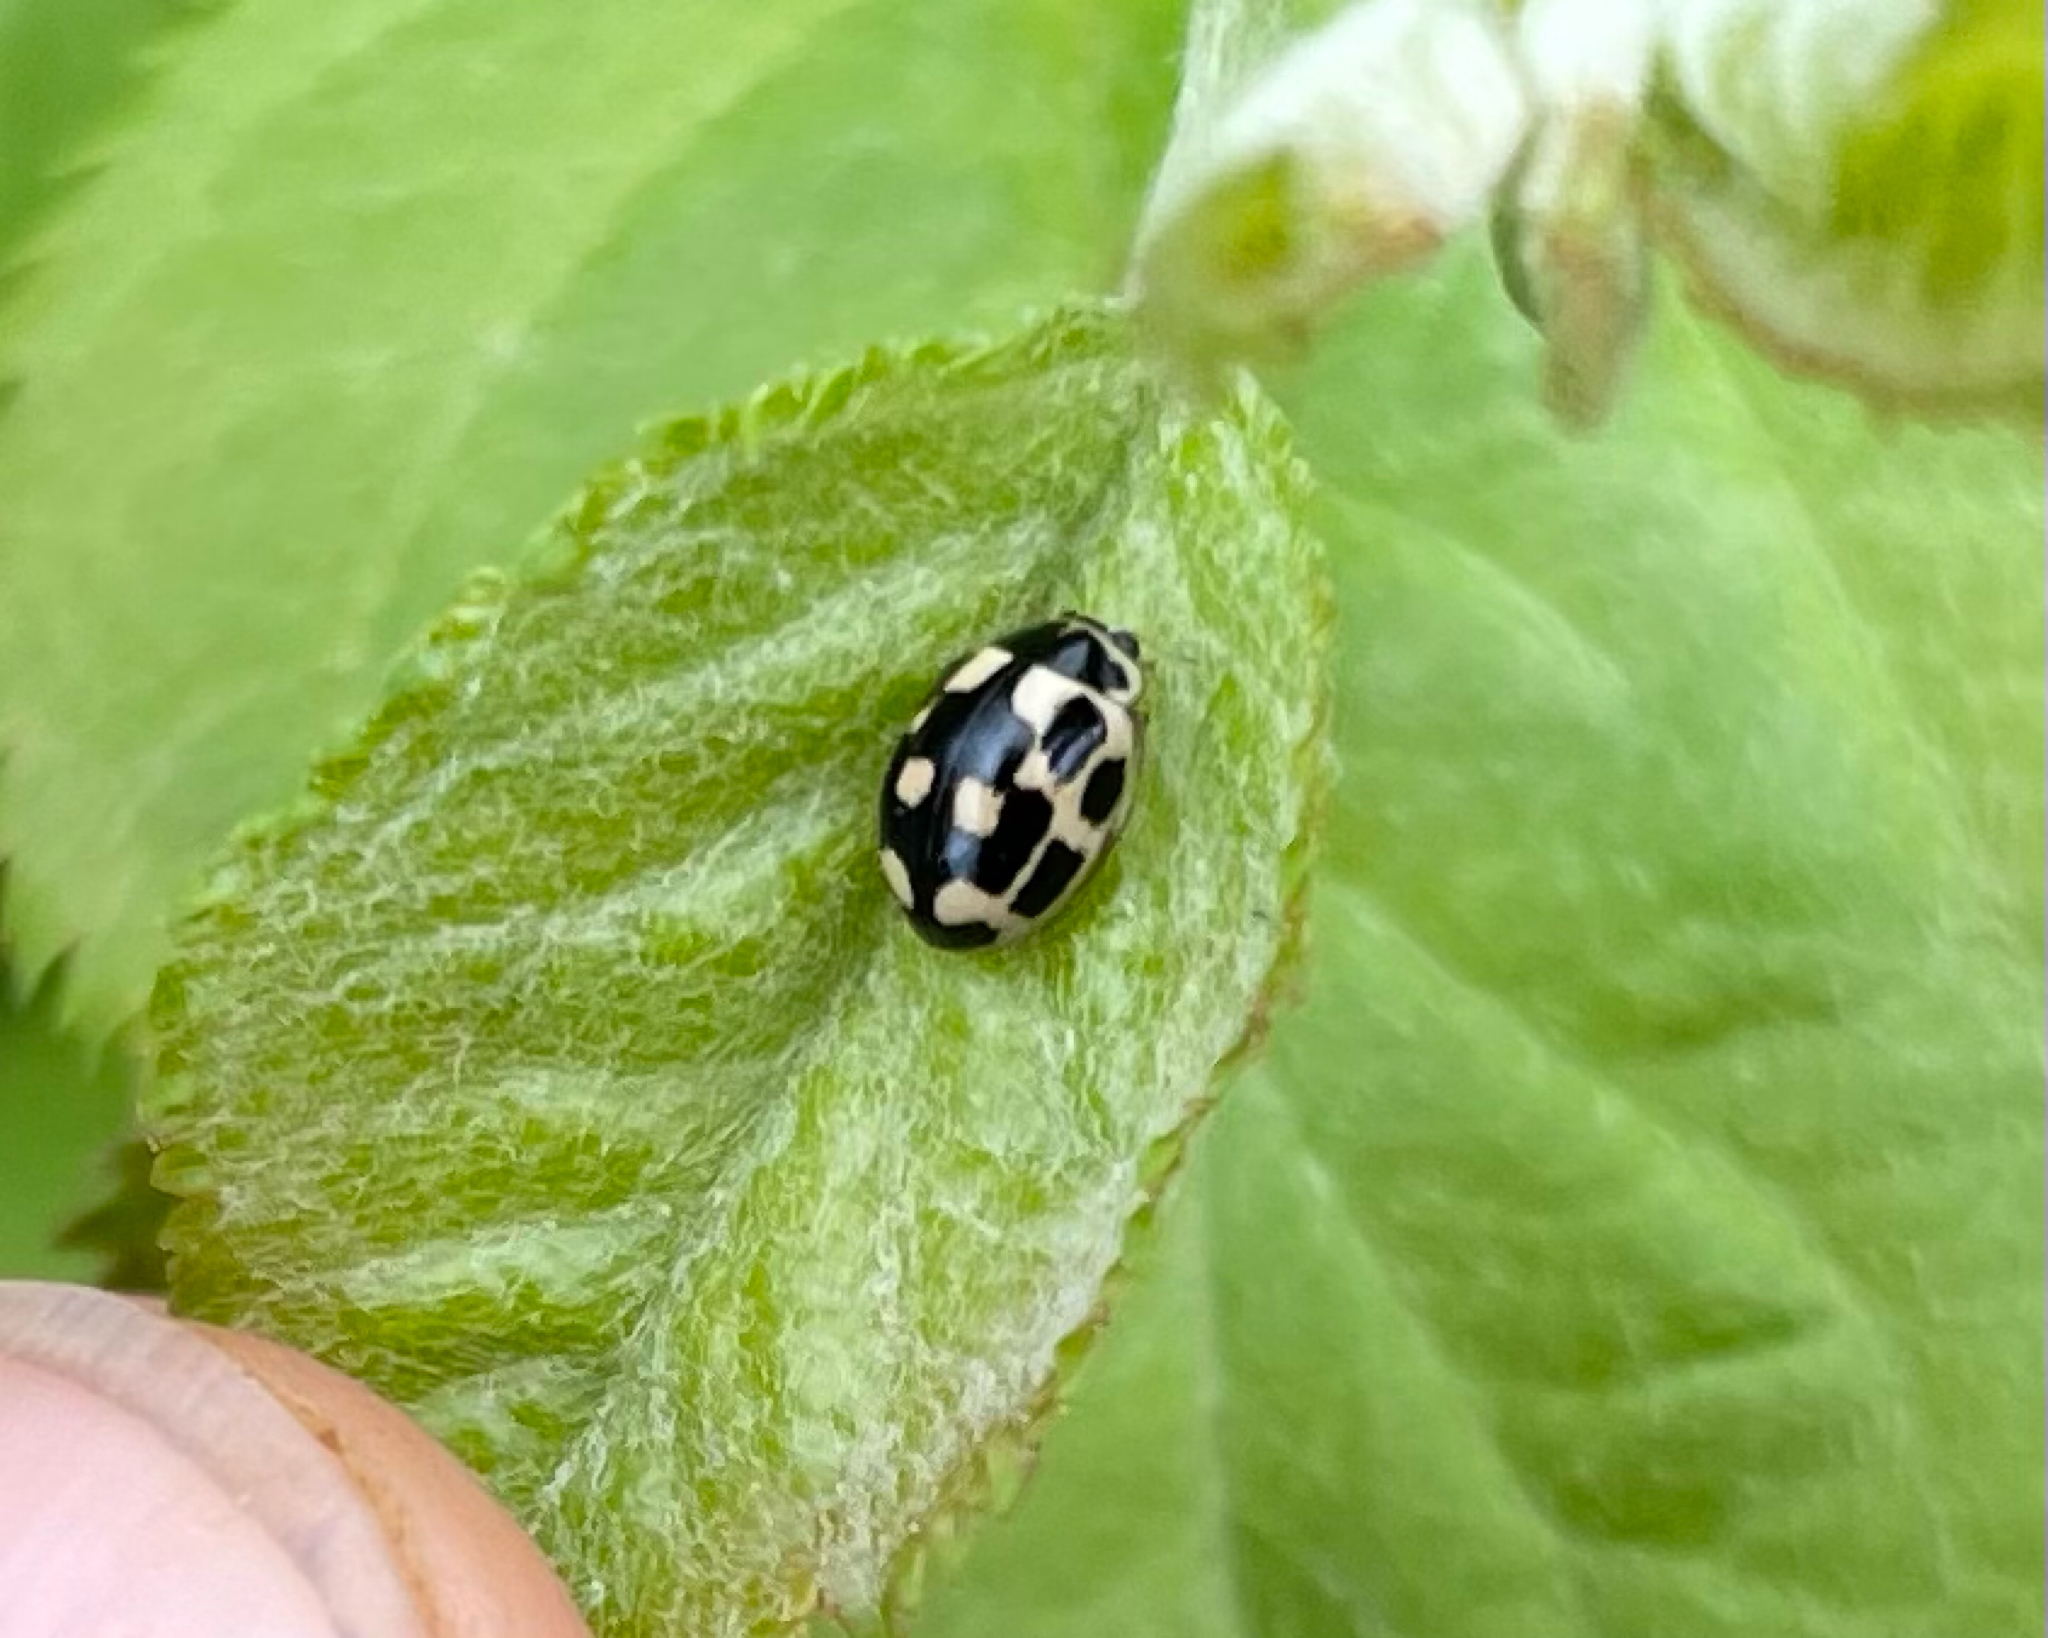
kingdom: Animalia
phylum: Arthropoda
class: Insecta
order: Coleoptera
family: Coccinellidae
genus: Propylaea
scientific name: Propylaea quatuordecimpunctata
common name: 14-spotted ladybird beetle
